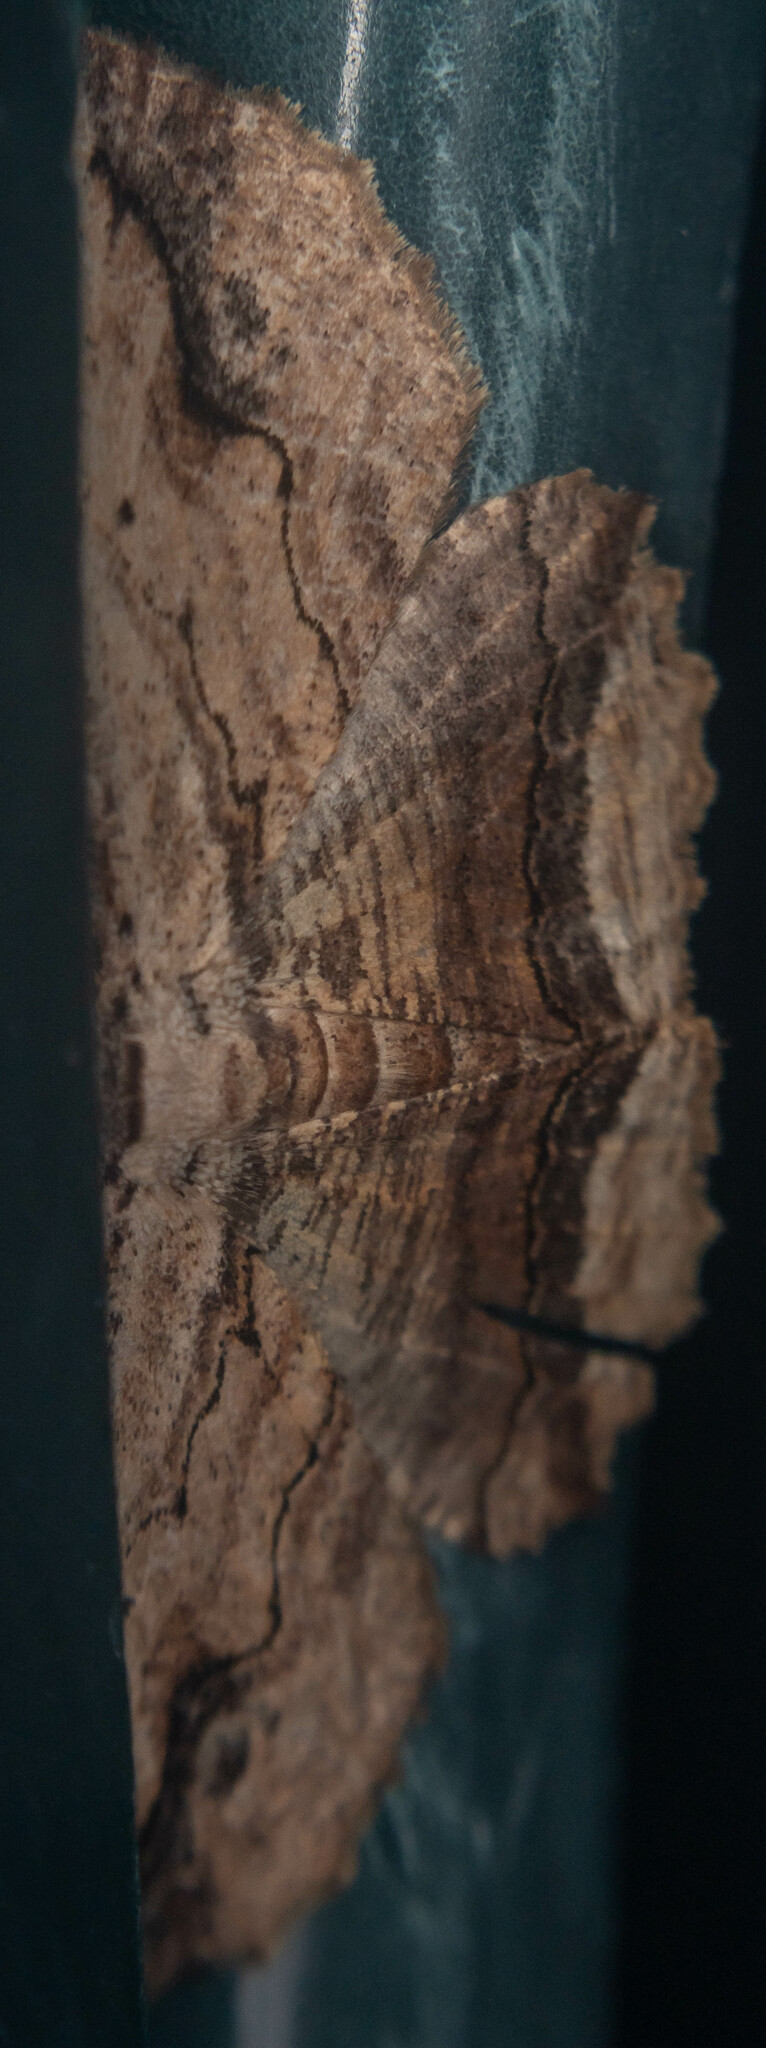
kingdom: Animalia
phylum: Arthropoda
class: Insecta
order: Lepidoptera
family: Geometridae
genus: Menophra
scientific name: Menophra abruptaria
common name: Waved umber
